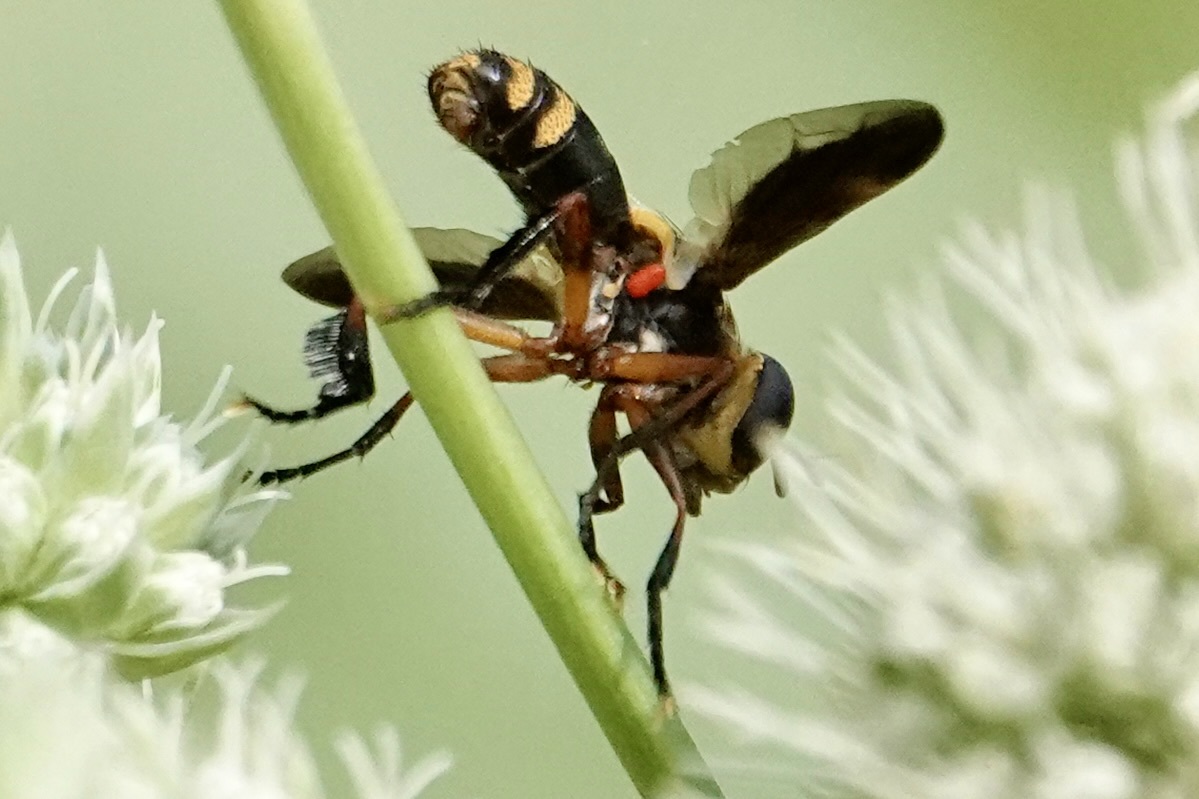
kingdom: Animalia
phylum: Arthropoda
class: Insecta
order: Diptera
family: Tachinidae
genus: Trichopoda
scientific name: Trichopoda plumipes
